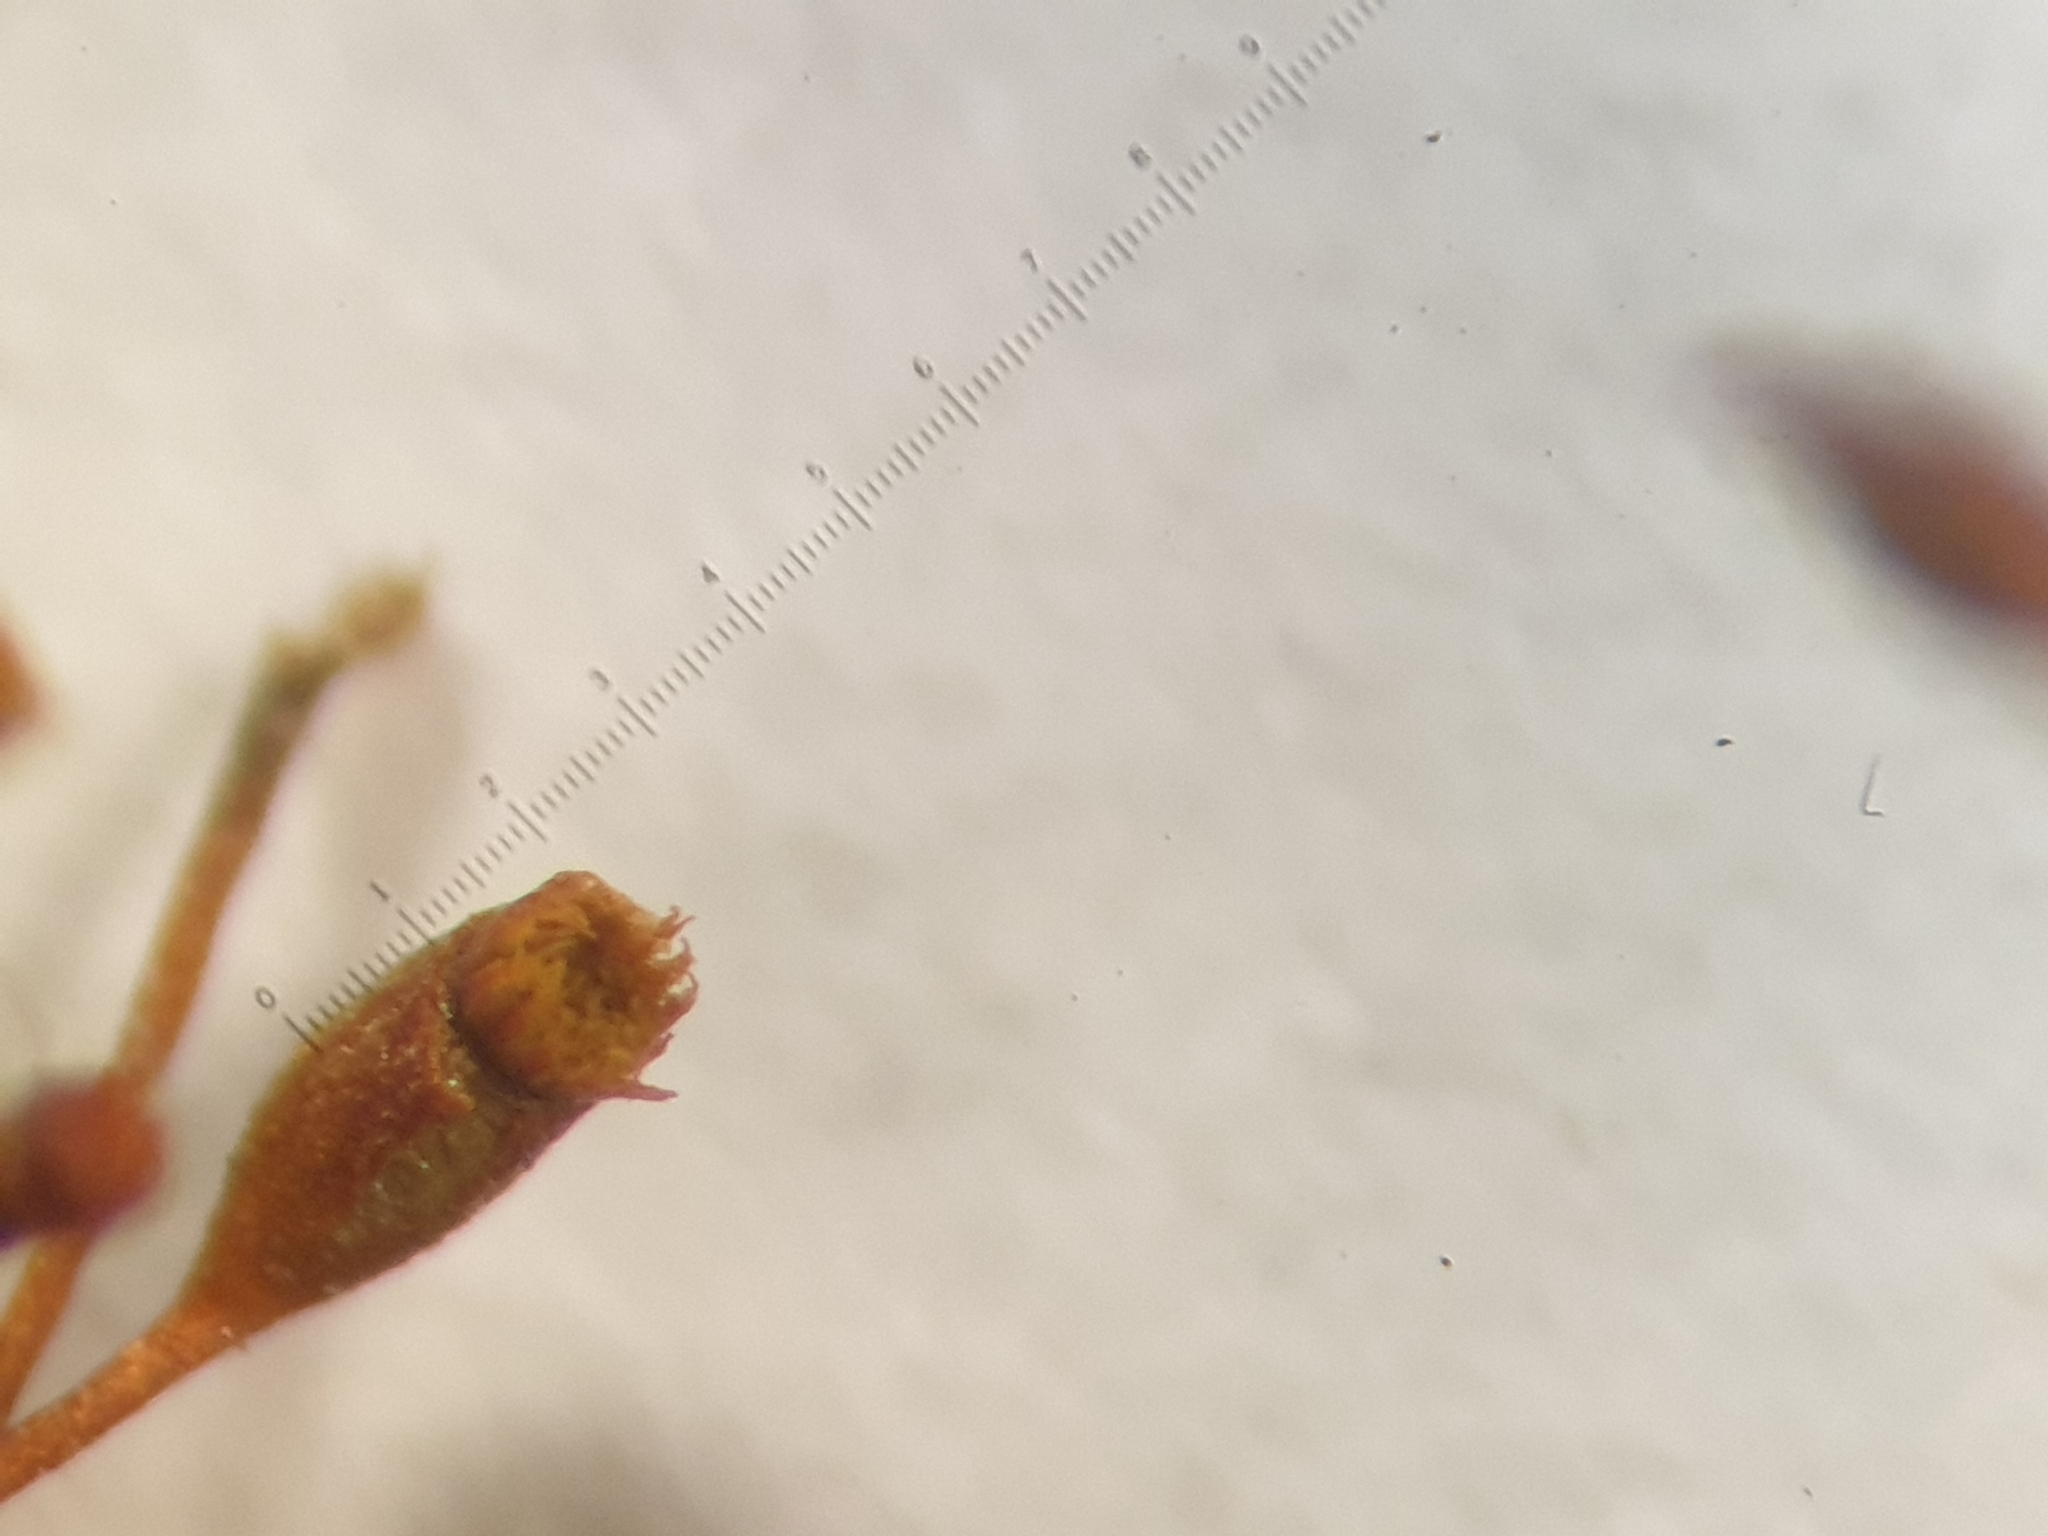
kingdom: Plantae
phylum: Bryophyta
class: Bryopsida
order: Dicranales
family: Dicranellaceae
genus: Dicranella
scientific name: Dicranella varia
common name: Variable forklet moss
